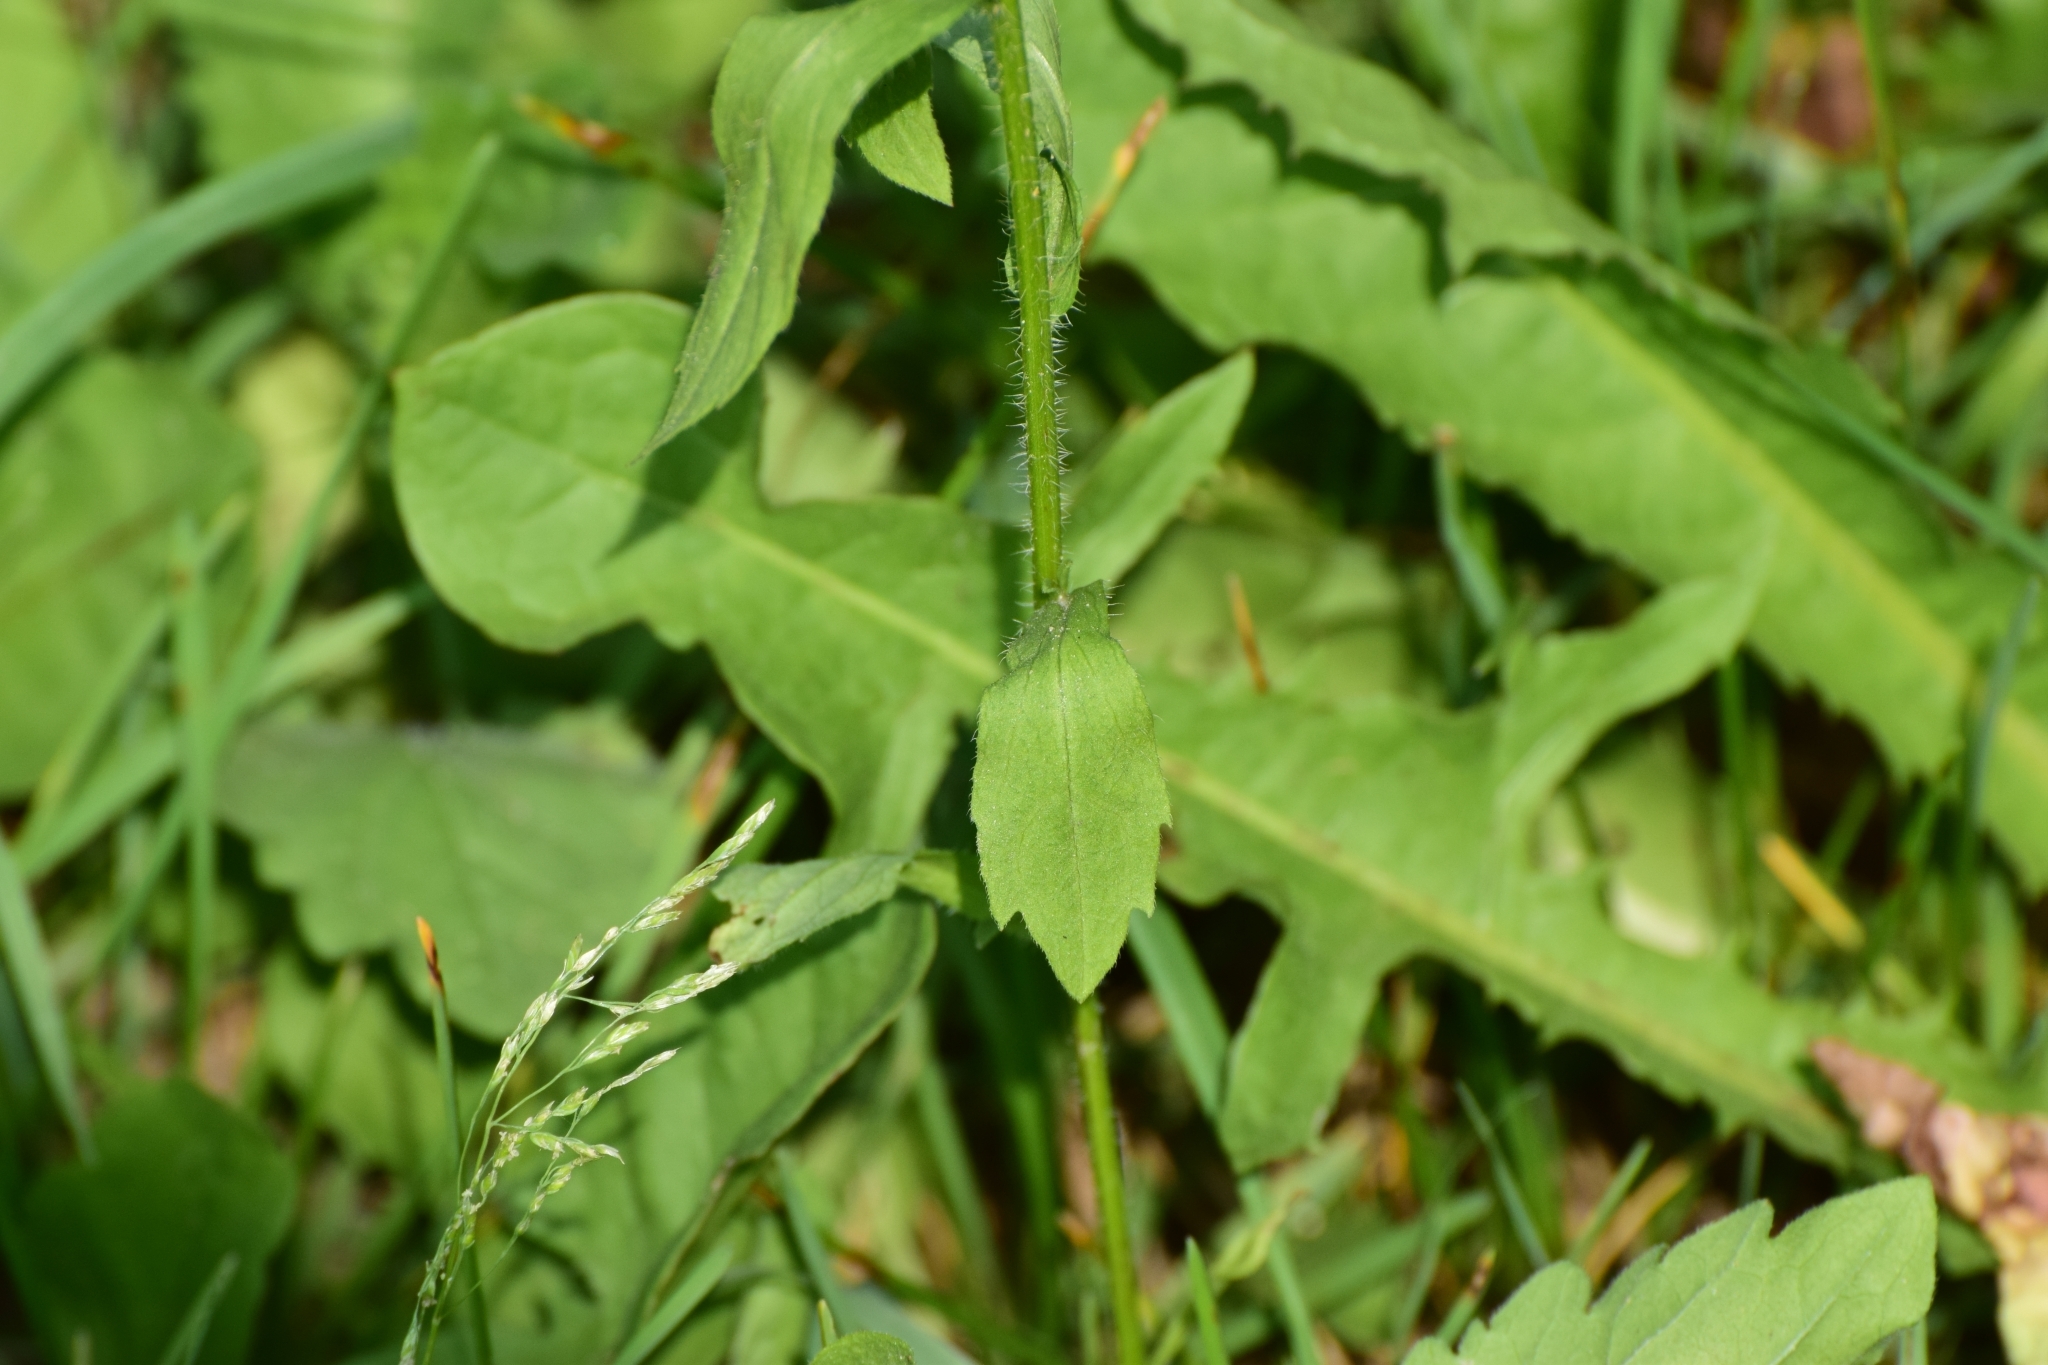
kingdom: Plantae
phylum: Tracheophyta
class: Magnoliopsida
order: Asterales
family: Asteraceae
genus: Erigeron
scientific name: Erigeron annuus
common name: Tall fleabane
